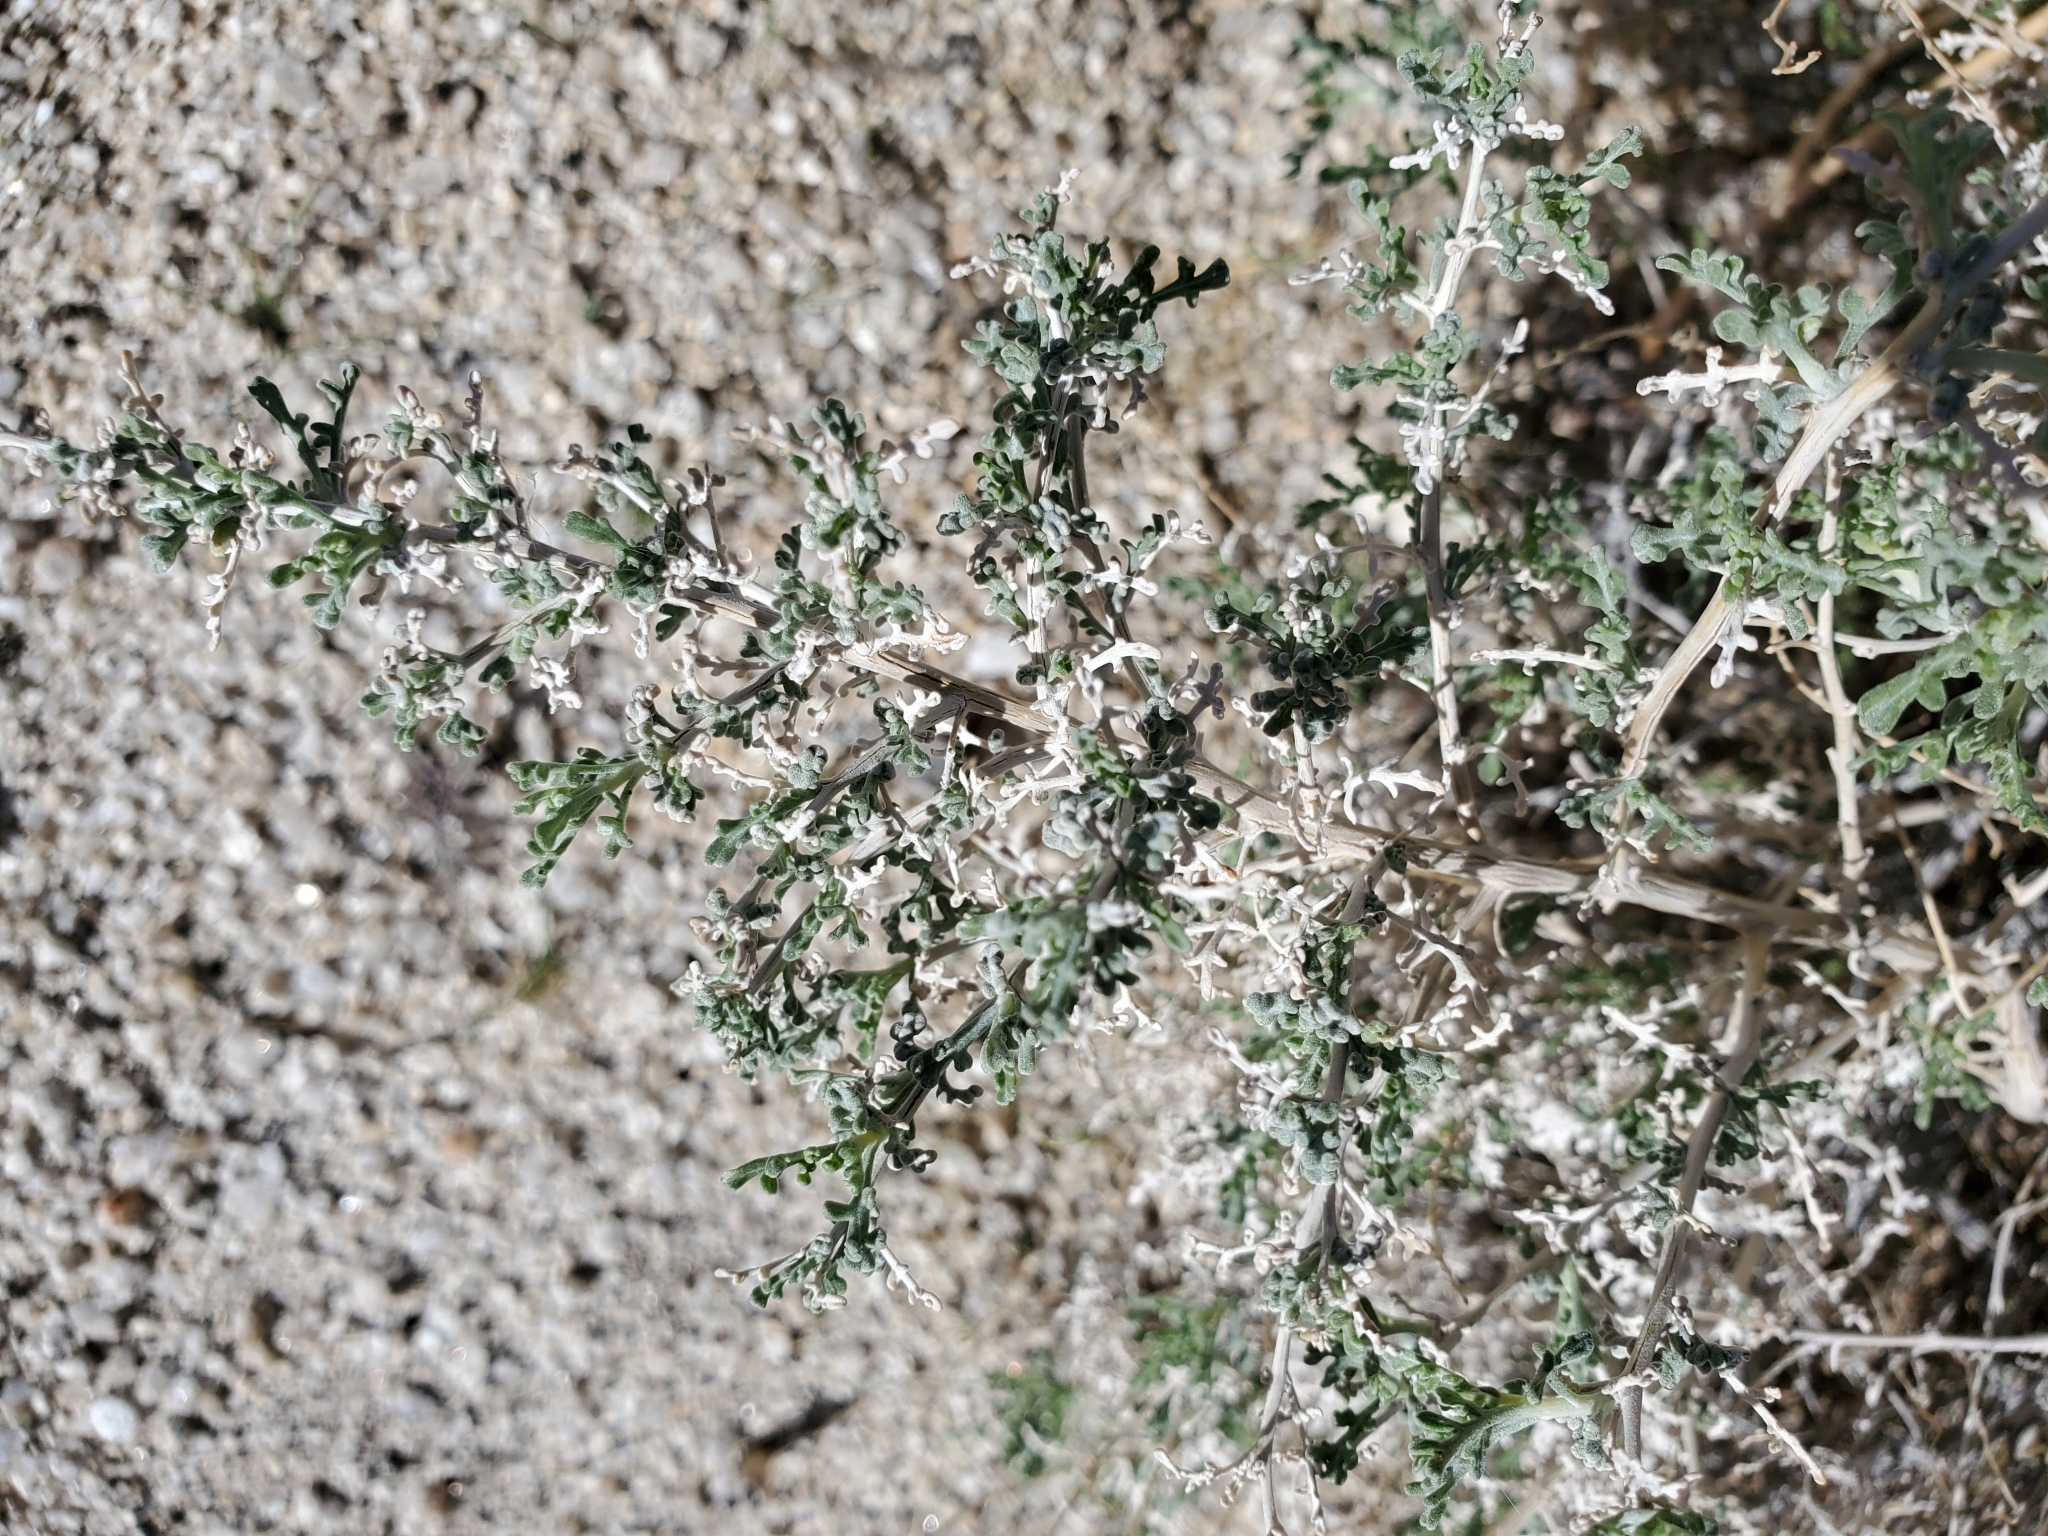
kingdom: Plantae
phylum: Tracheophyta
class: Magnoliopsida
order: Asterales
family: Asteraceae
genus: Ambrosia
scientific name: Ambrosia dumosa
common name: Bur-sage
